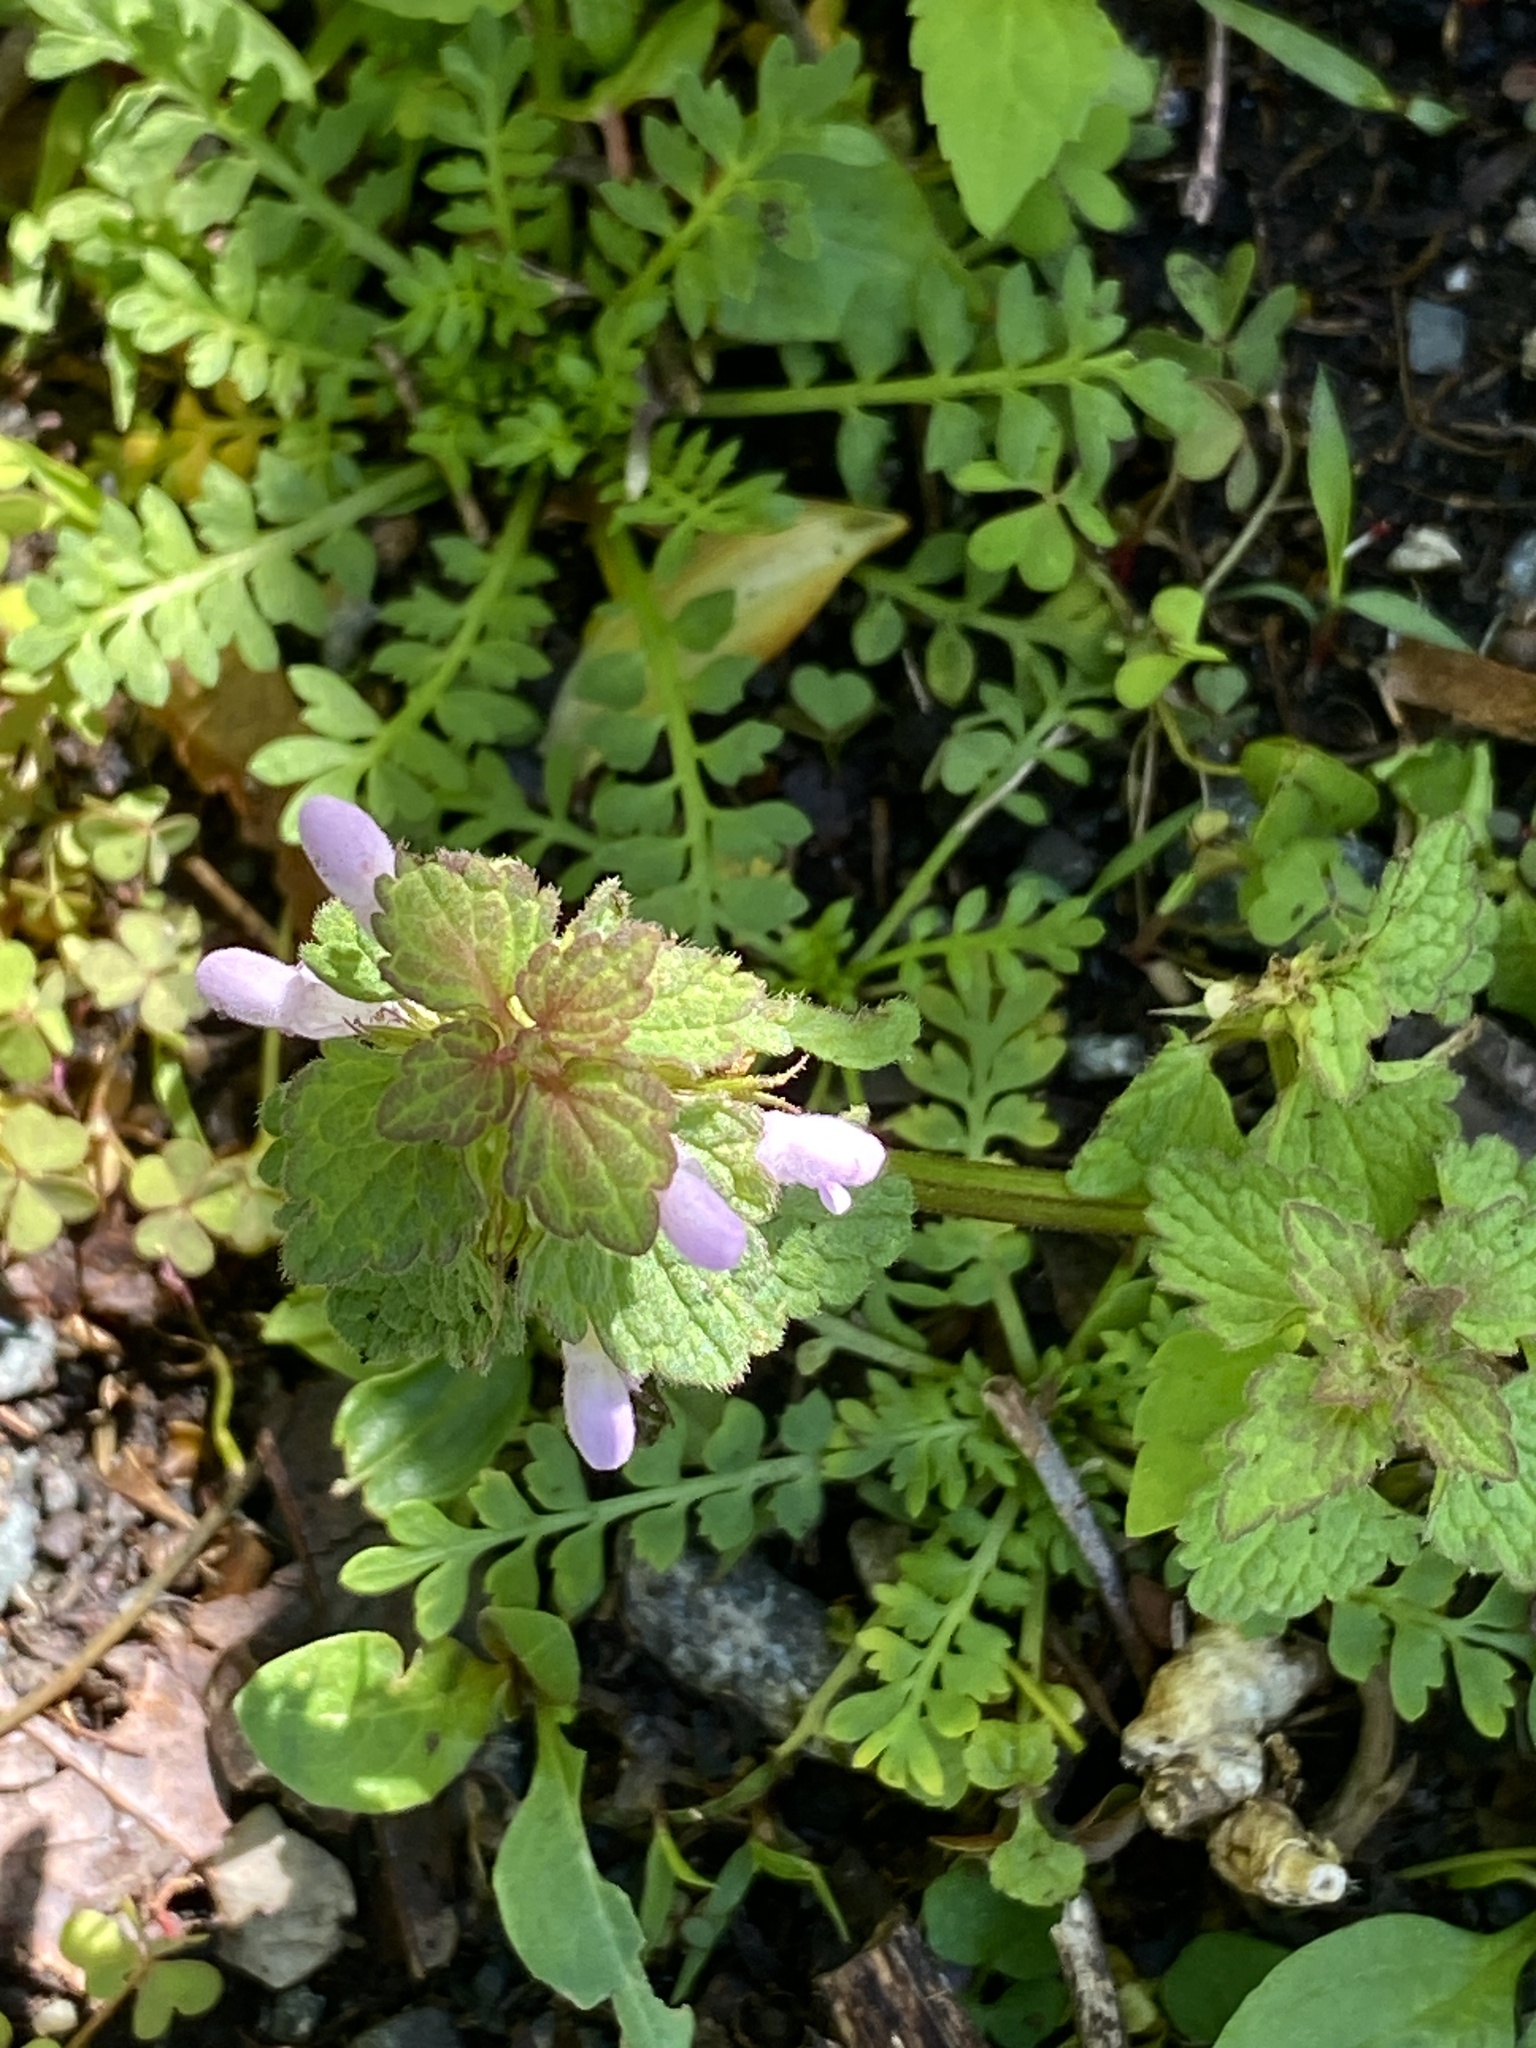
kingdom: Plantae
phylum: Tracheophyta
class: Magnoliopsida
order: Lamiales
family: Lamiaceae
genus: Lamium
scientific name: Lamium purpureum
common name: Red dead-nettle
